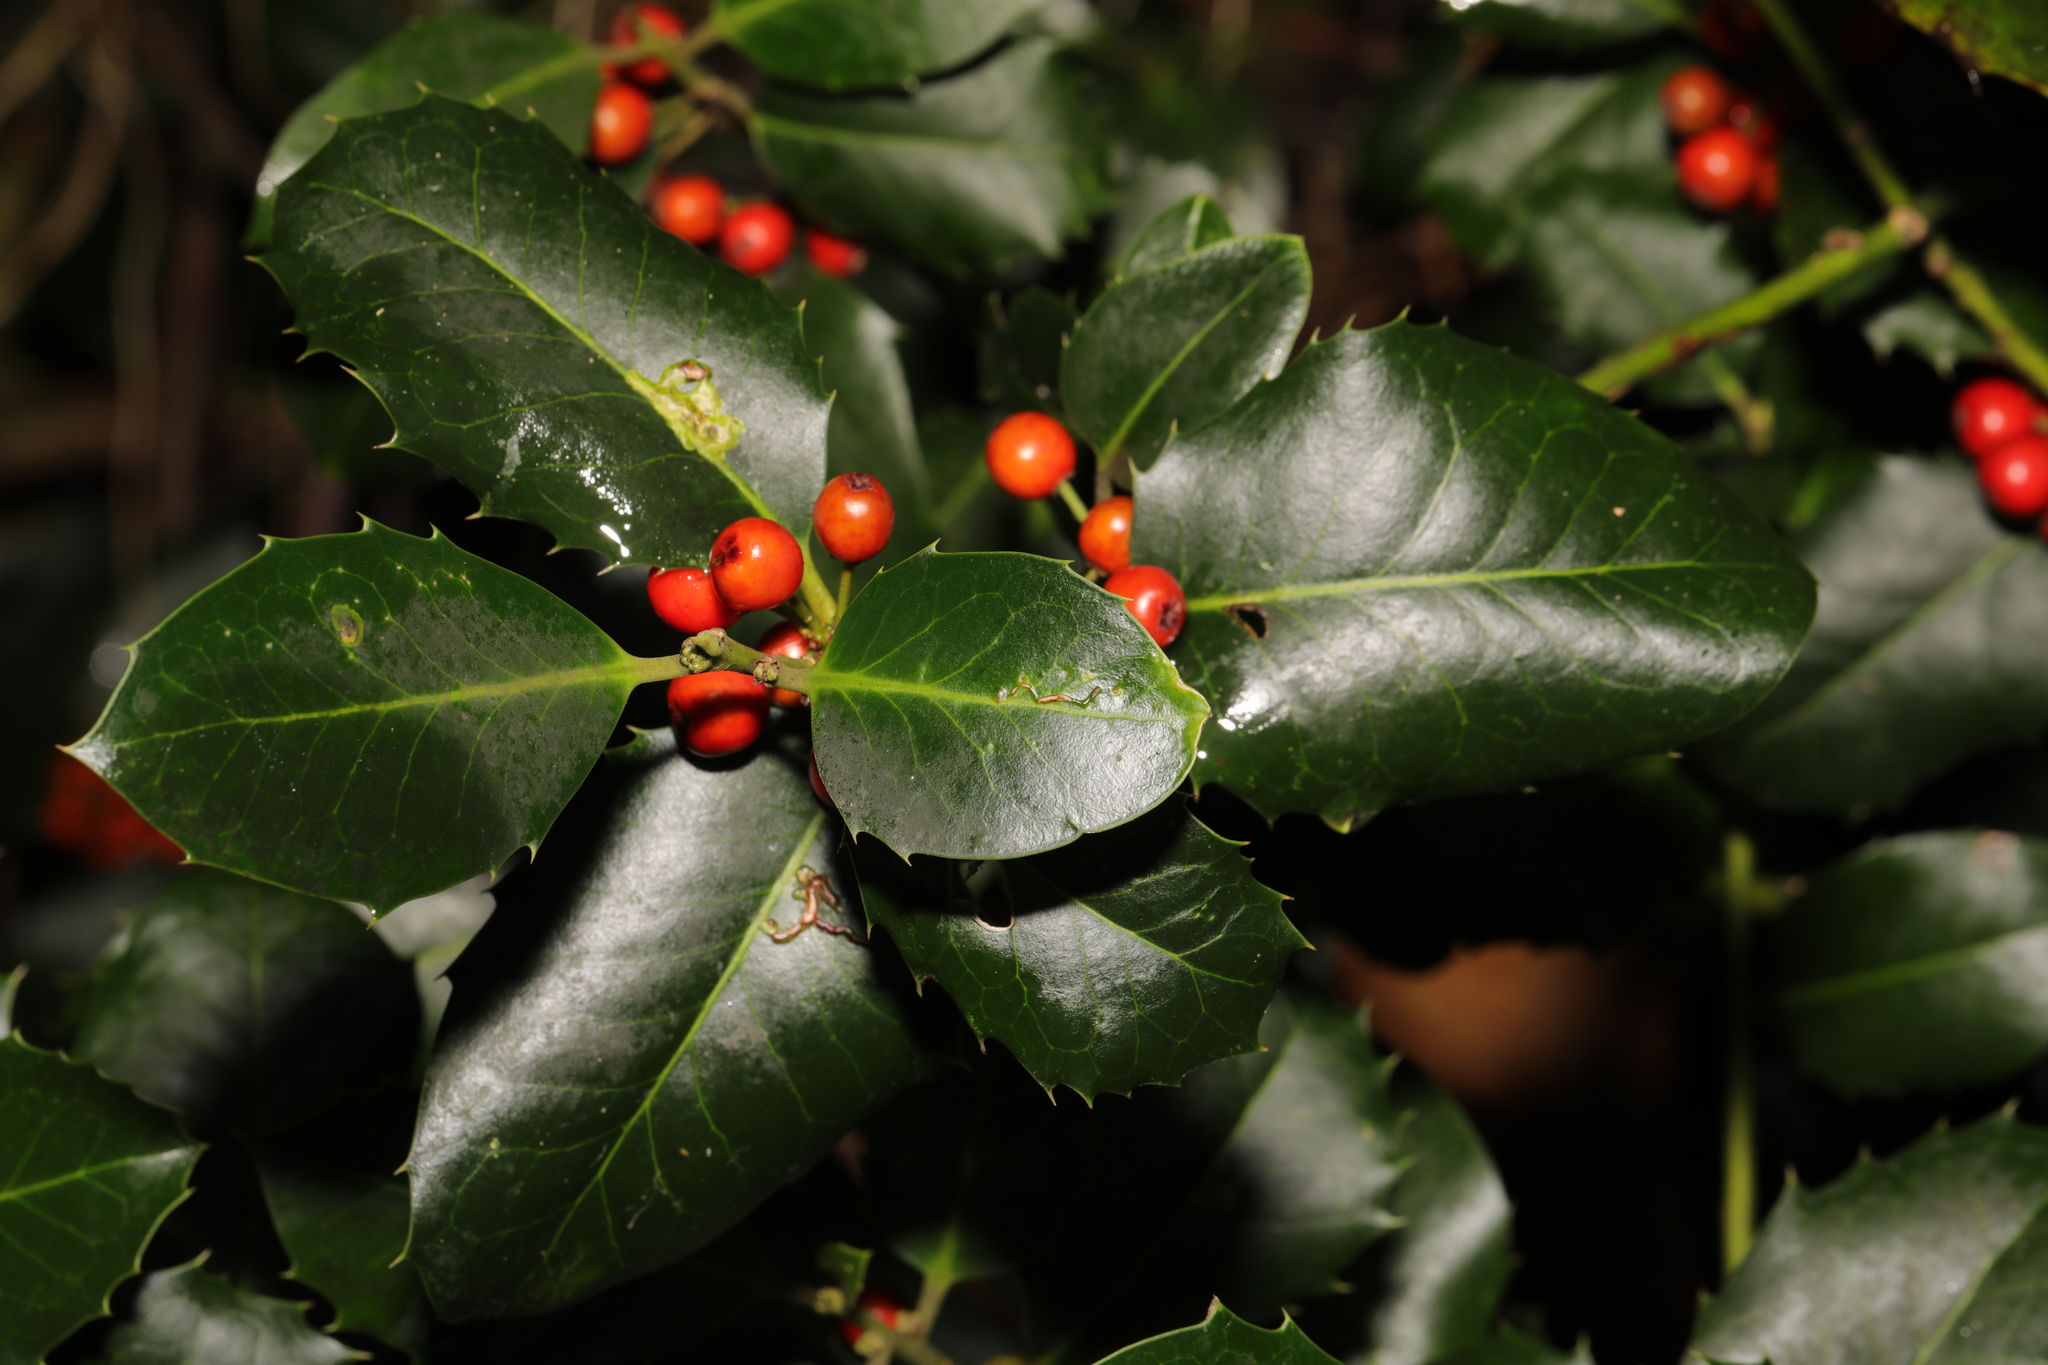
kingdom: Plantae
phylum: Tracheophyta
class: Magnoliopsida
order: Aquifoliales
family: Aquifoliaceae
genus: Ilex
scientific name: Ilex aquifolium
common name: English holly
